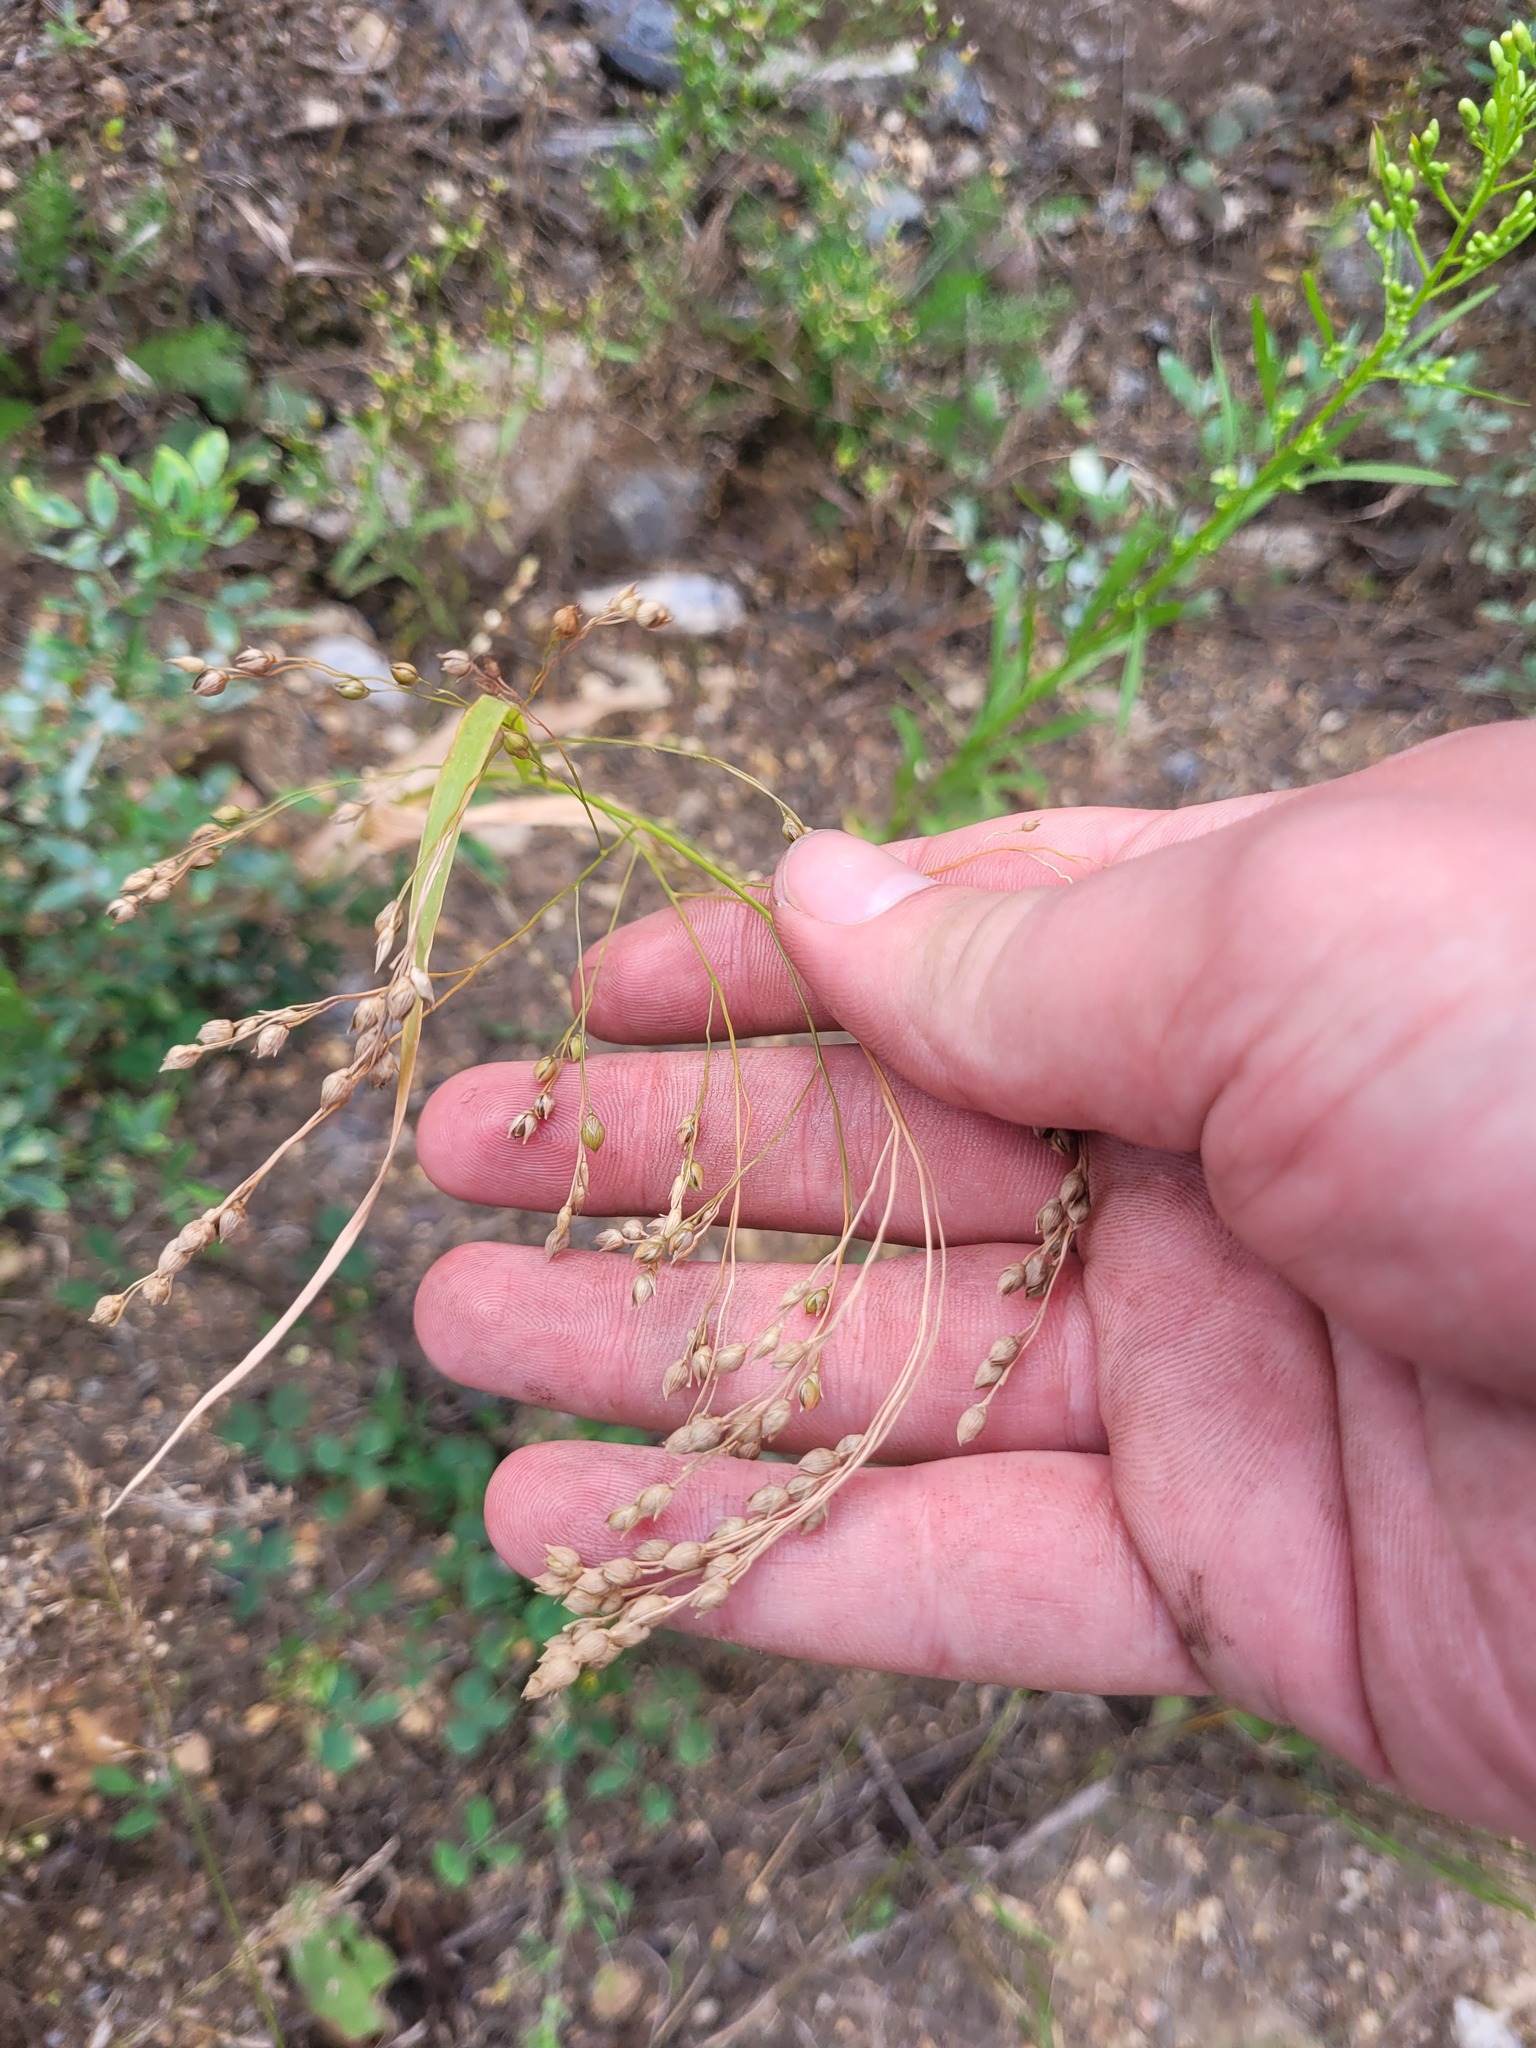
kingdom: Plantae
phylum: Tracheophyta
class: Liliopsida
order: Poales
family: Poaceae
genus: Panicum
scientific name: Panicum miliaceum
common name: Common millet
